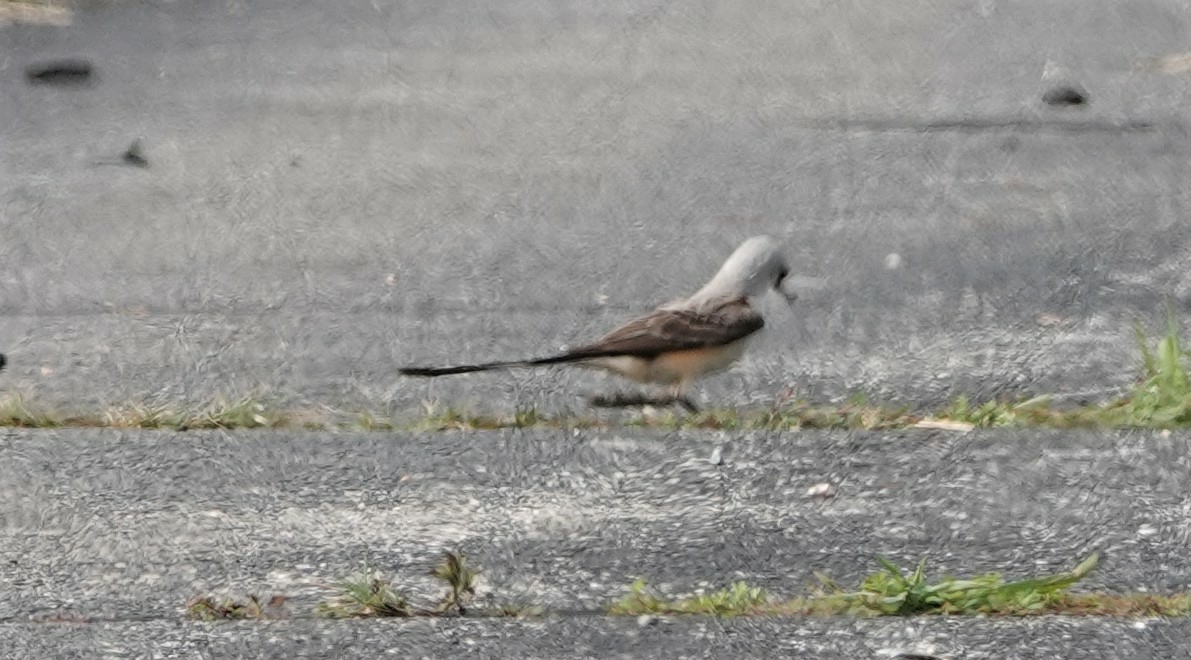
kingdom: Animalia
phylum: Chordata
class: Aves
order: Passeriformes
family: Tyrannidae
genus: Tyrannus
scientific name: Tyrannus forficatus
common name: Scissor-tailed flycatcher
